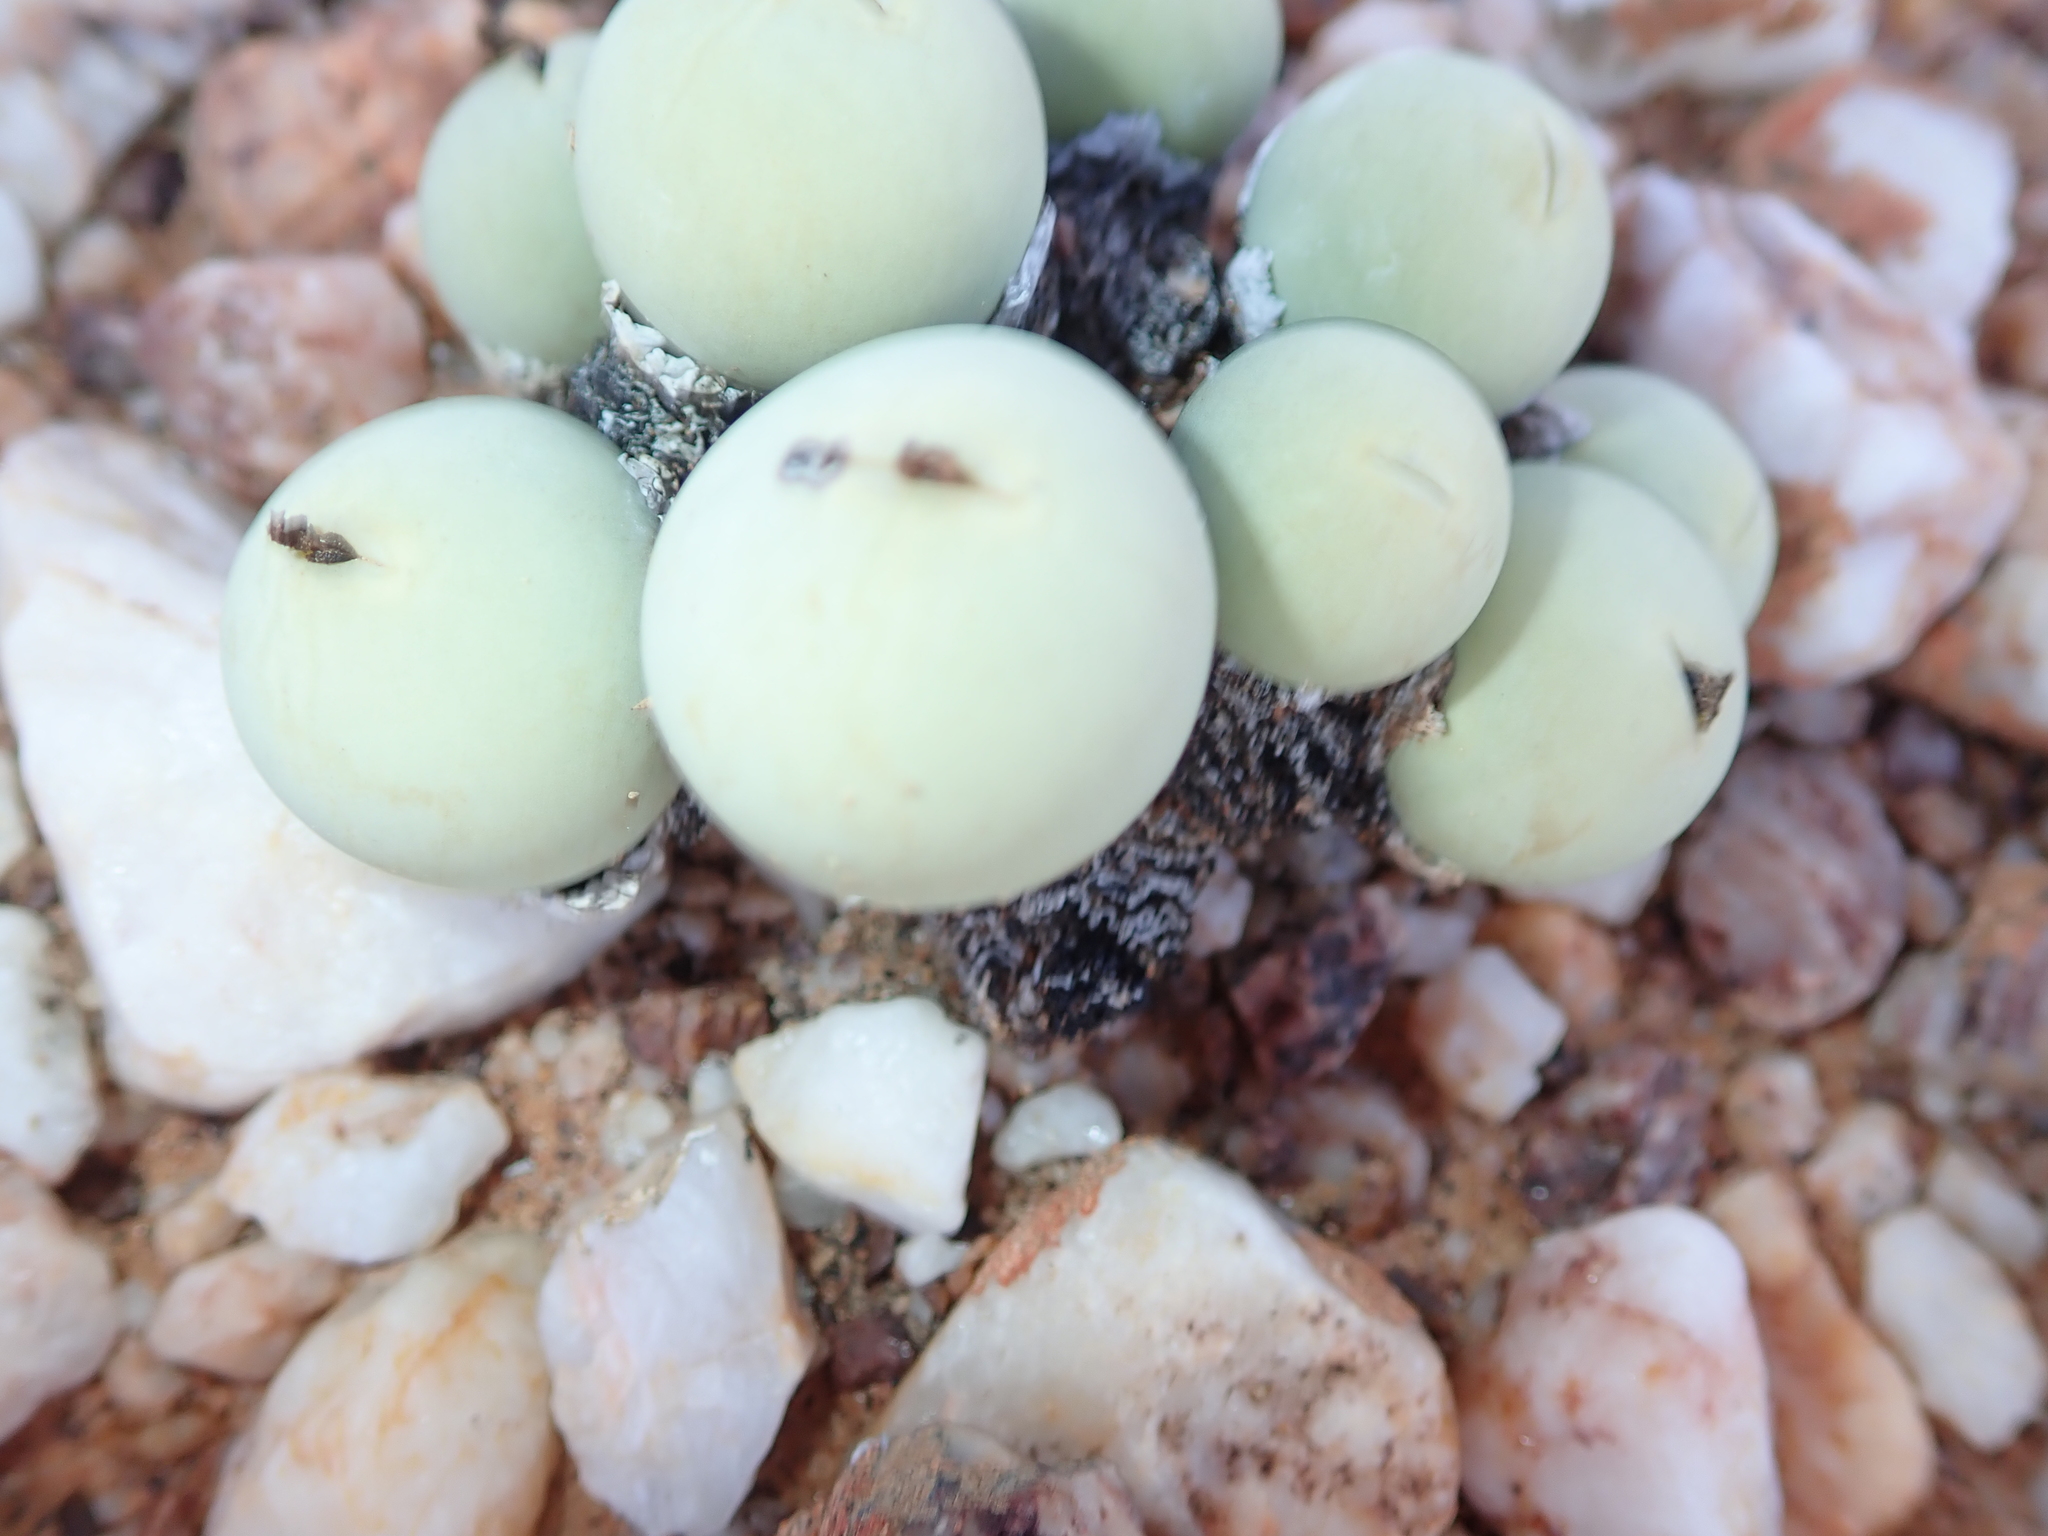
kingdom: Plantae
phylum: Tracheophyta
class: Magnoliopsida
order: Caryophyllales
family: Aizoaceae
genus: Conophytum
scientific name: Conophytum calculus
